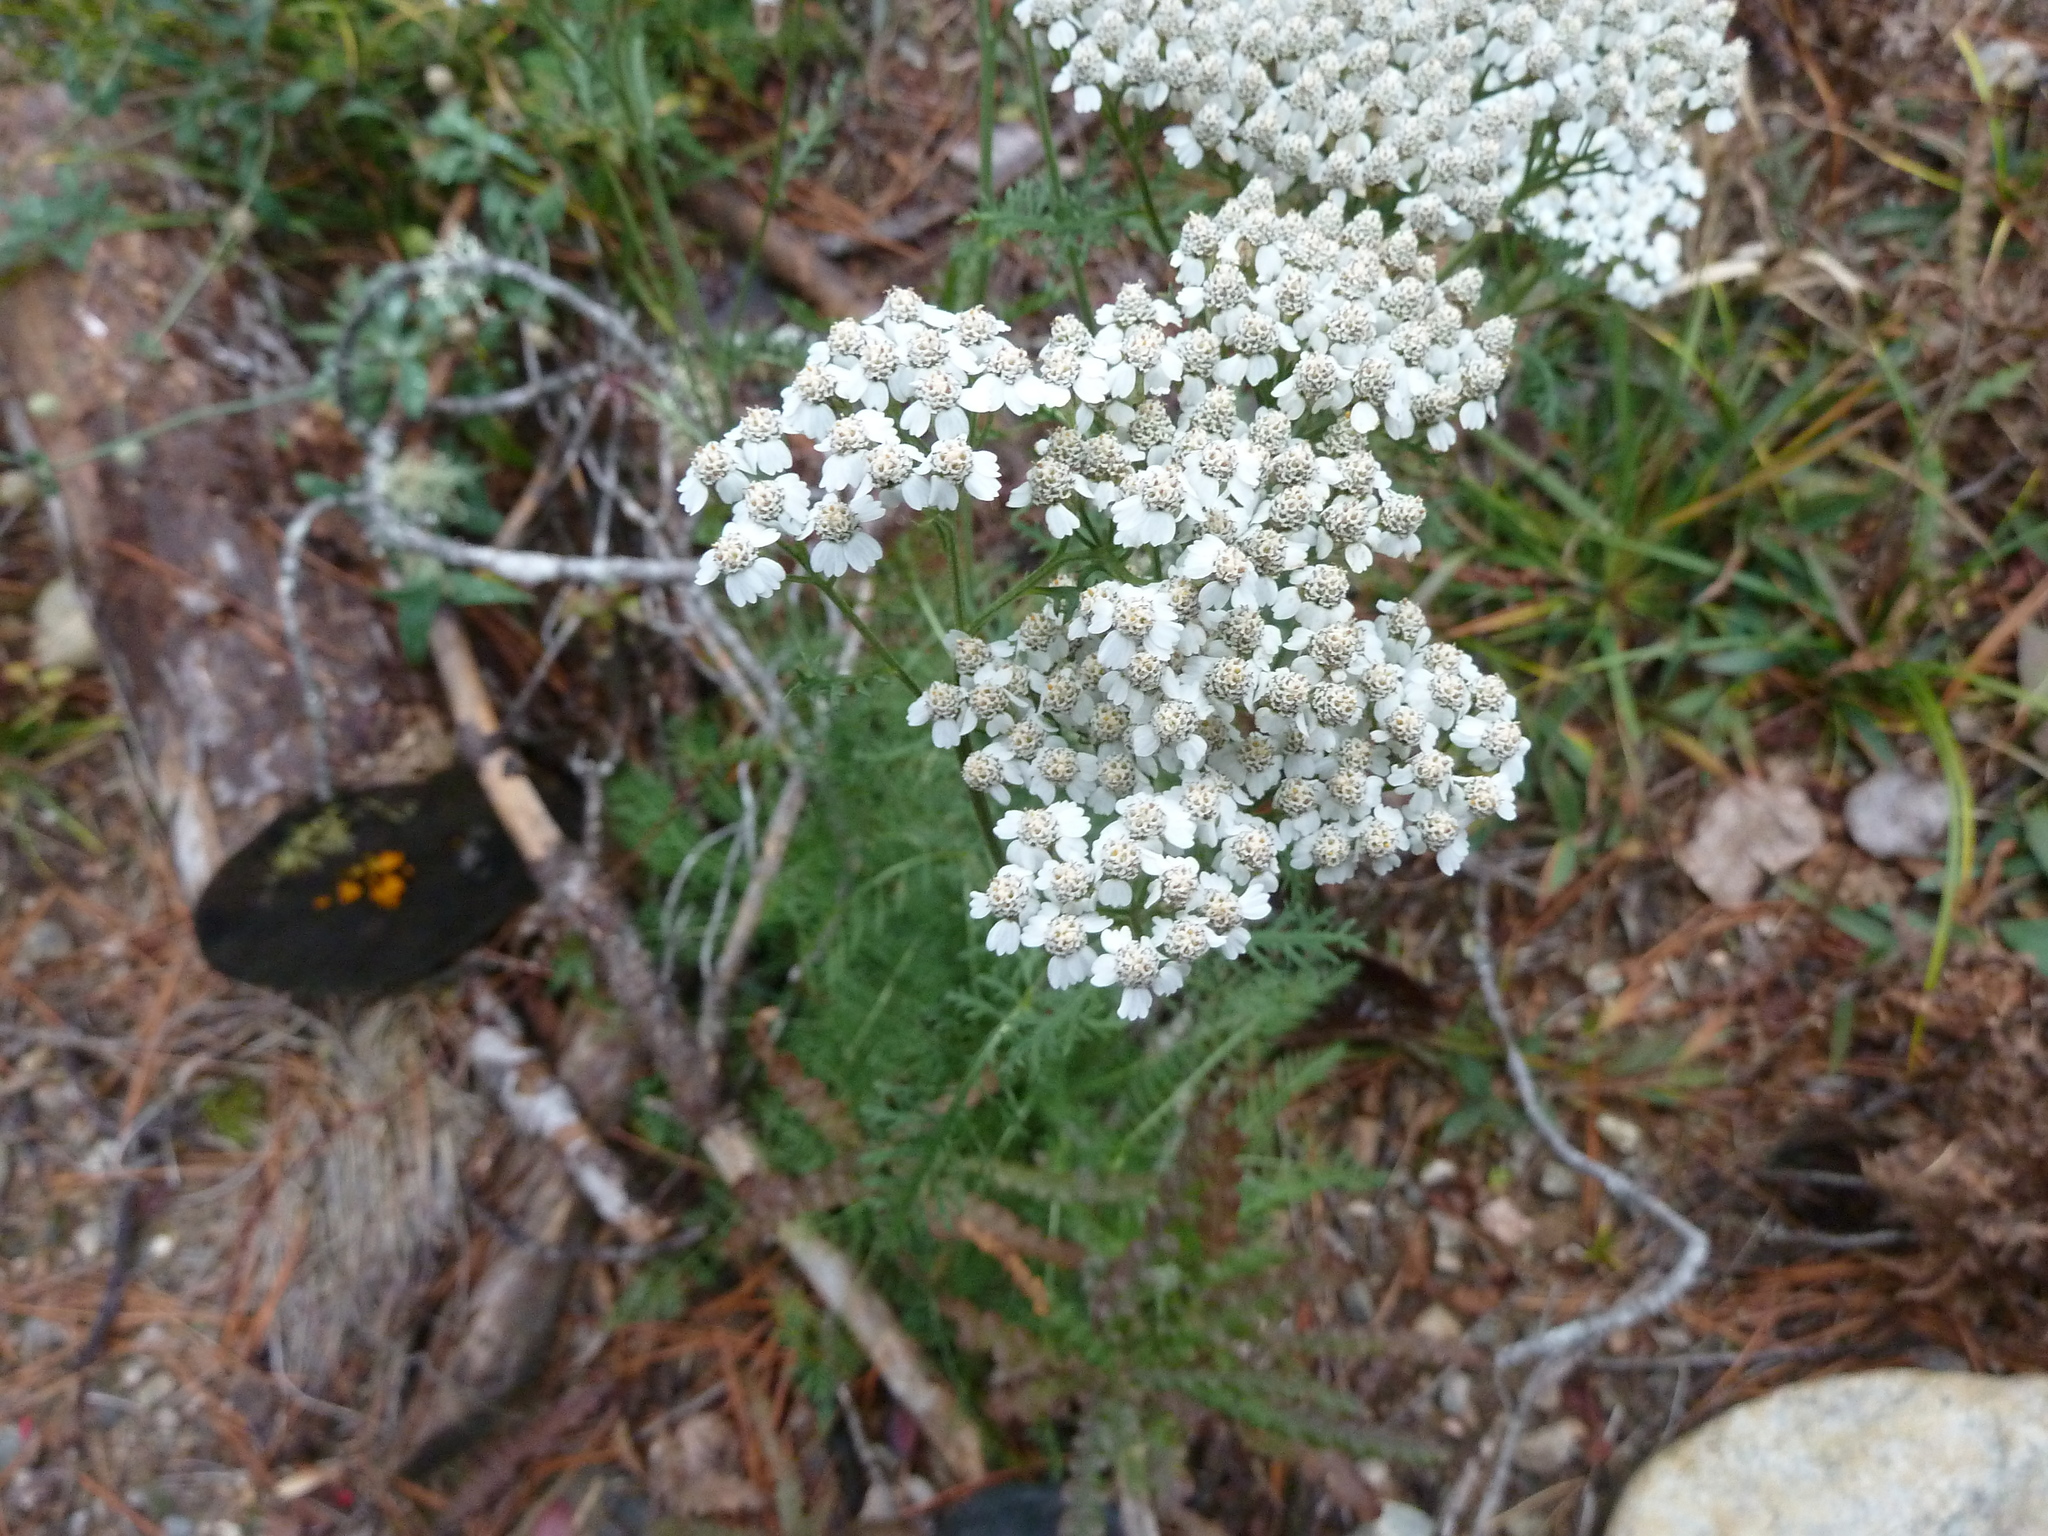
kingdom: Plantae
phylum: Tracheophyta
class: Magnoliopsida
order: Asterales
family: Asteraceae
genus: Achillea
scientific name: Achillea millefolium
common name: Yarrow
